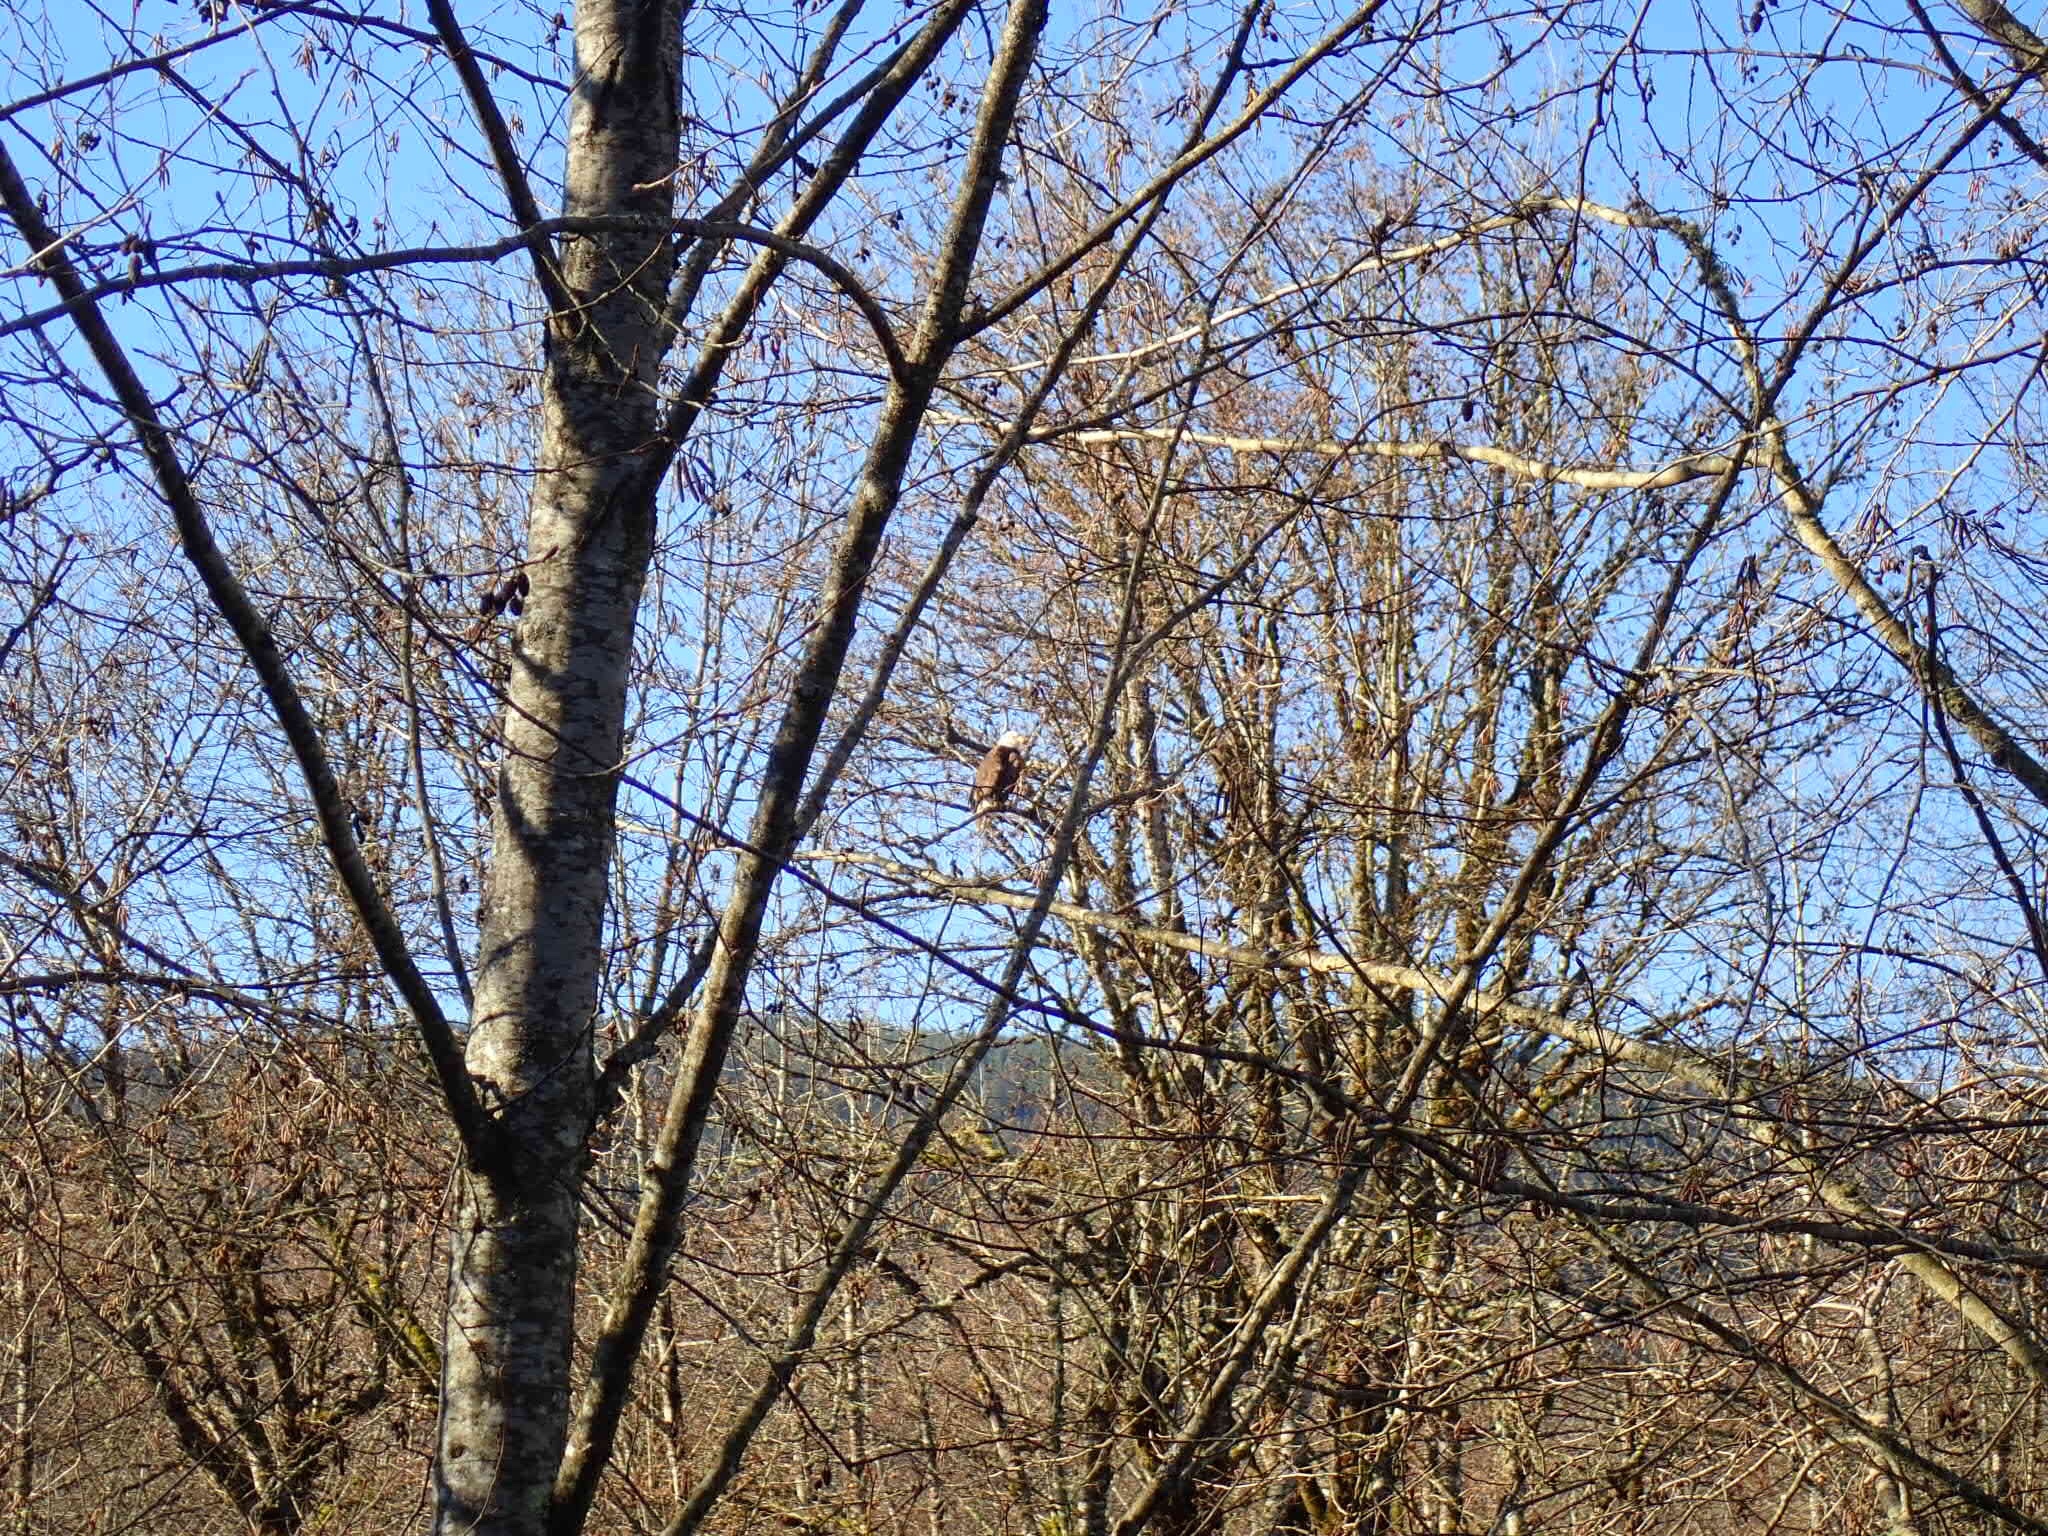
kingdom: Animalia
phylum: Chordata
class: Aves
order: Accipitriformes
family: Accipitridae
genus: Haliaeetus
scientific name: Haliaeetus leucocephalus
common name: Bald eagle
